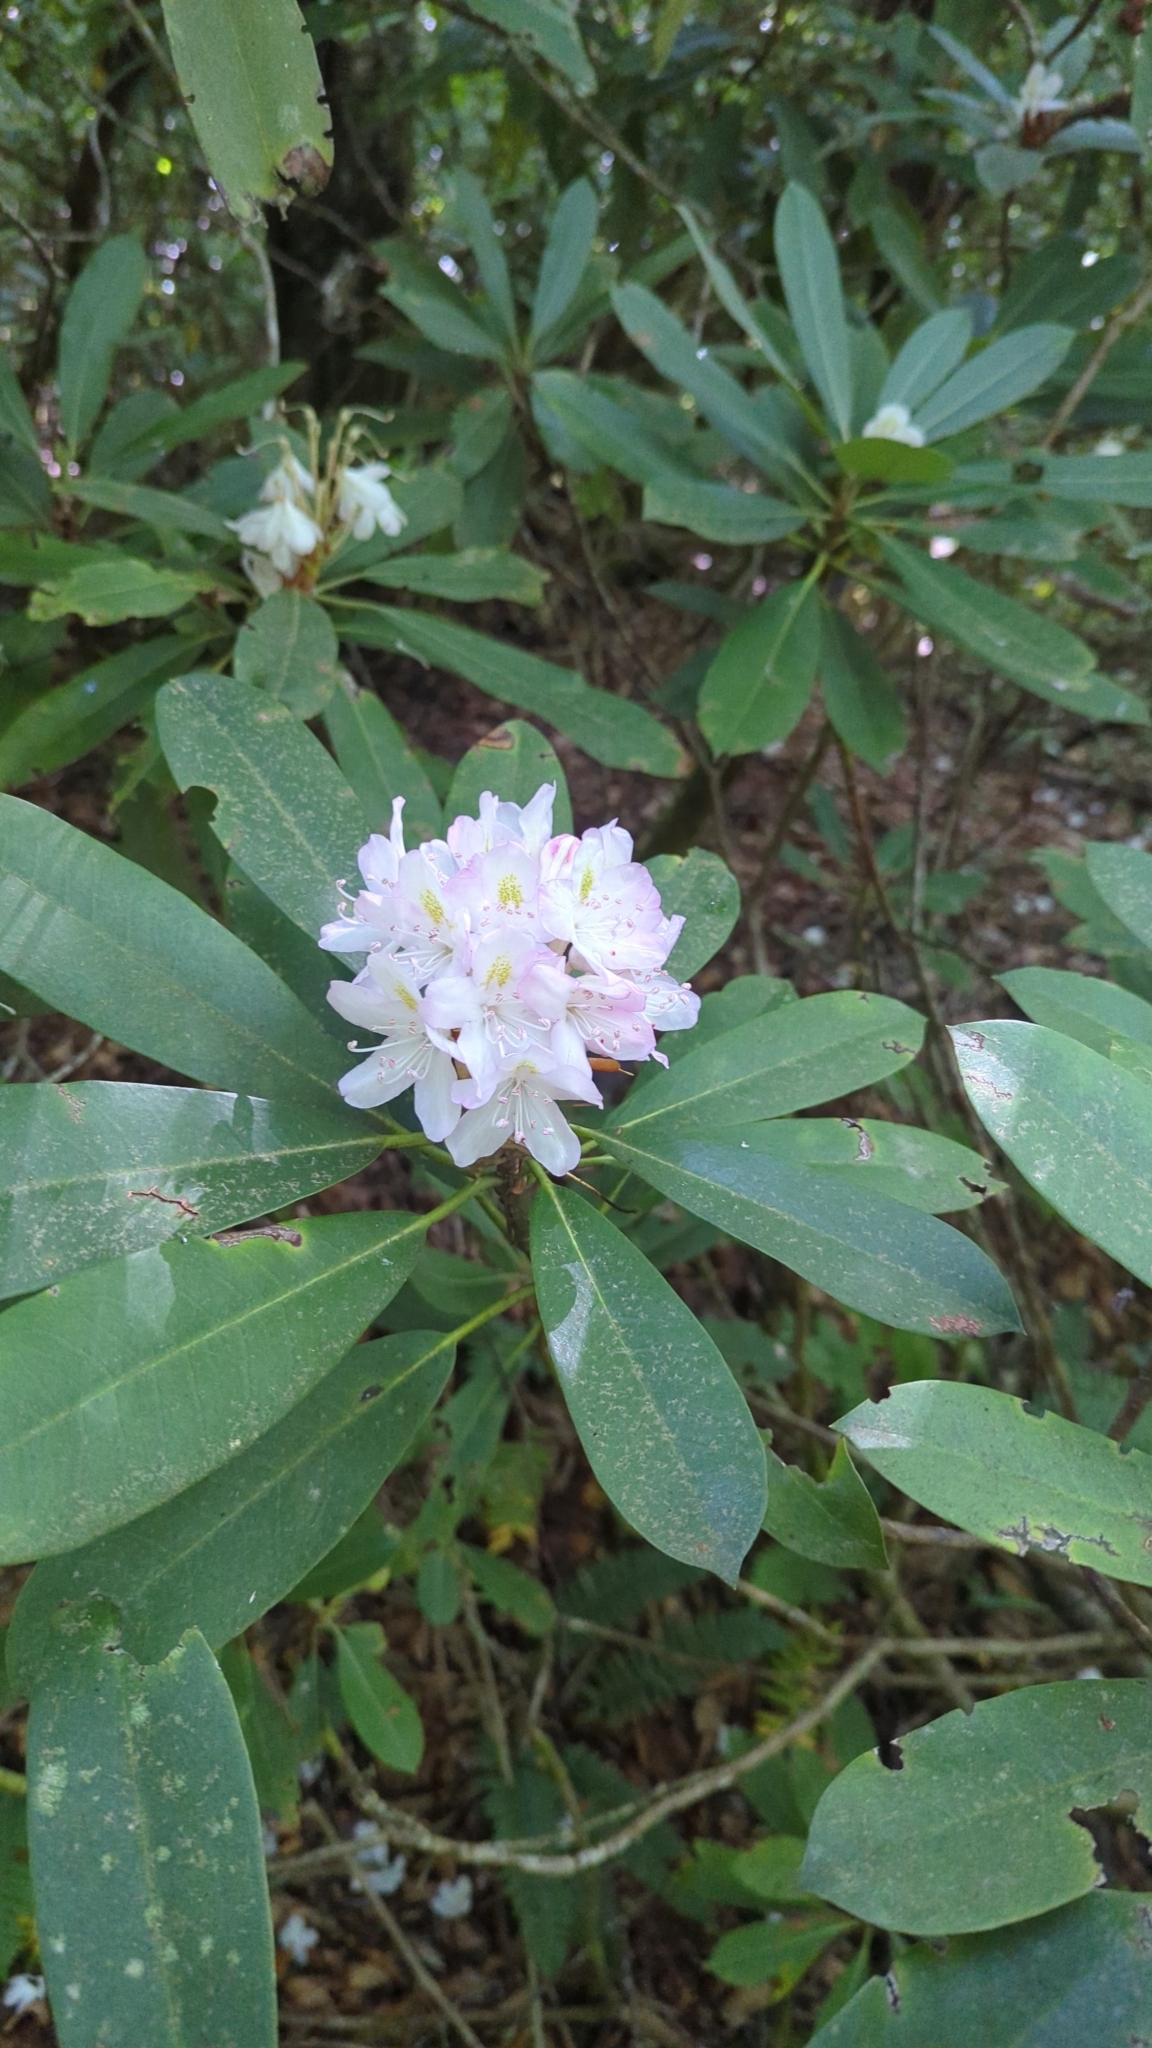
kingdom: Plantae
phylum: Tracheophyta
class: Magnoliopsida
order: Ericales
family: Ericaceae
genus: Rhododendron
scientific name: Rhododendron maximum
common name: Great rhododendron
